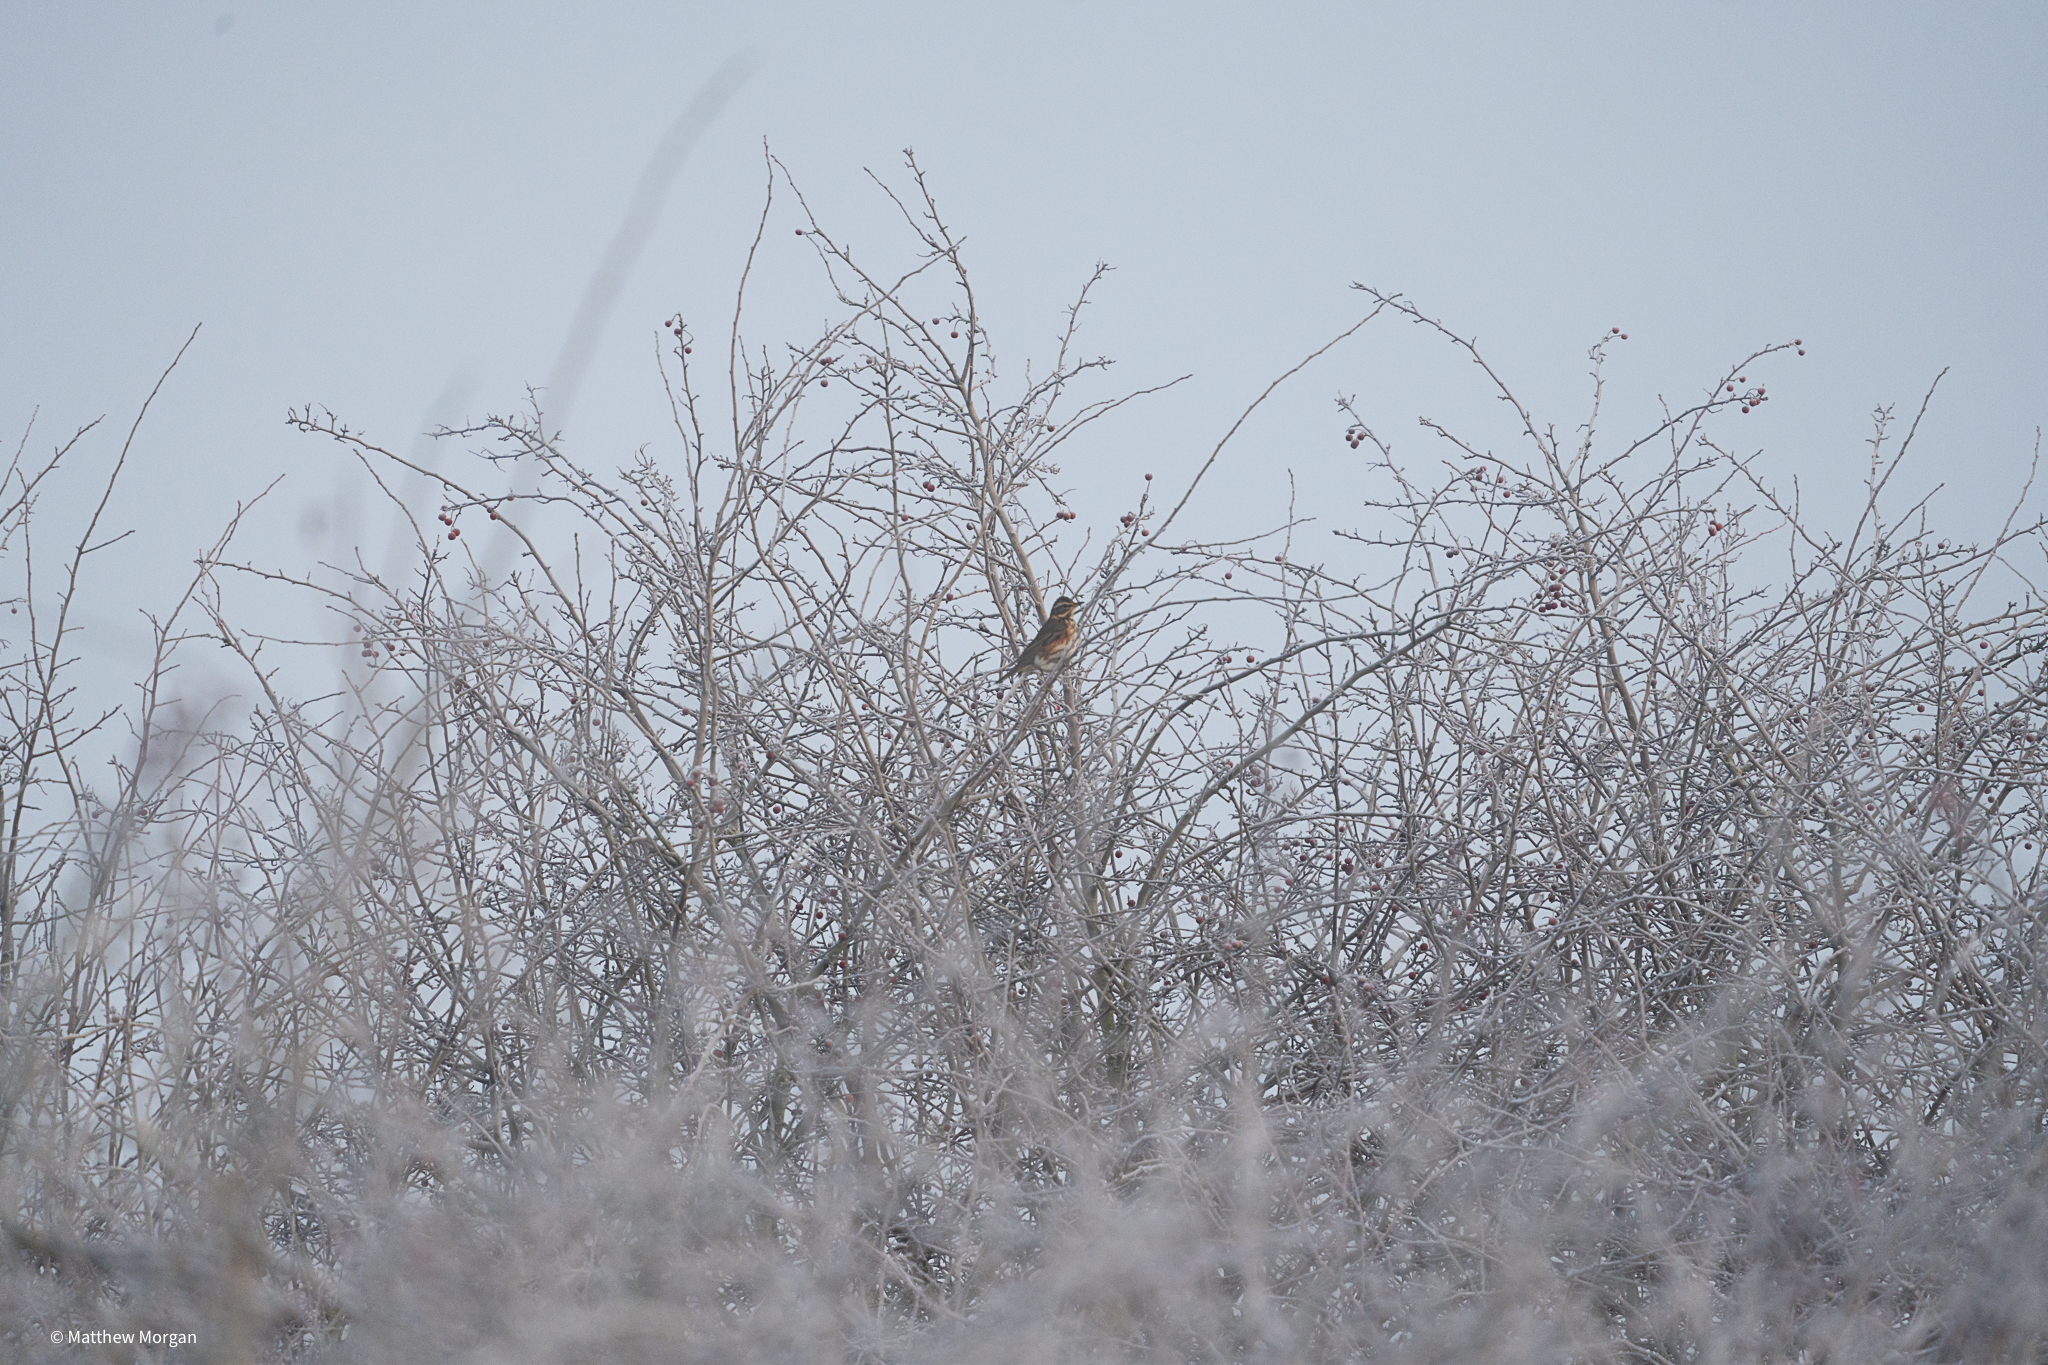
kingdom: Animalia
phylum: Chordata
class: Aves
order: Passeriformes
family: Turdidae
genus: Turdus
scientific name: Turdus iliacus
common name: Redwing
